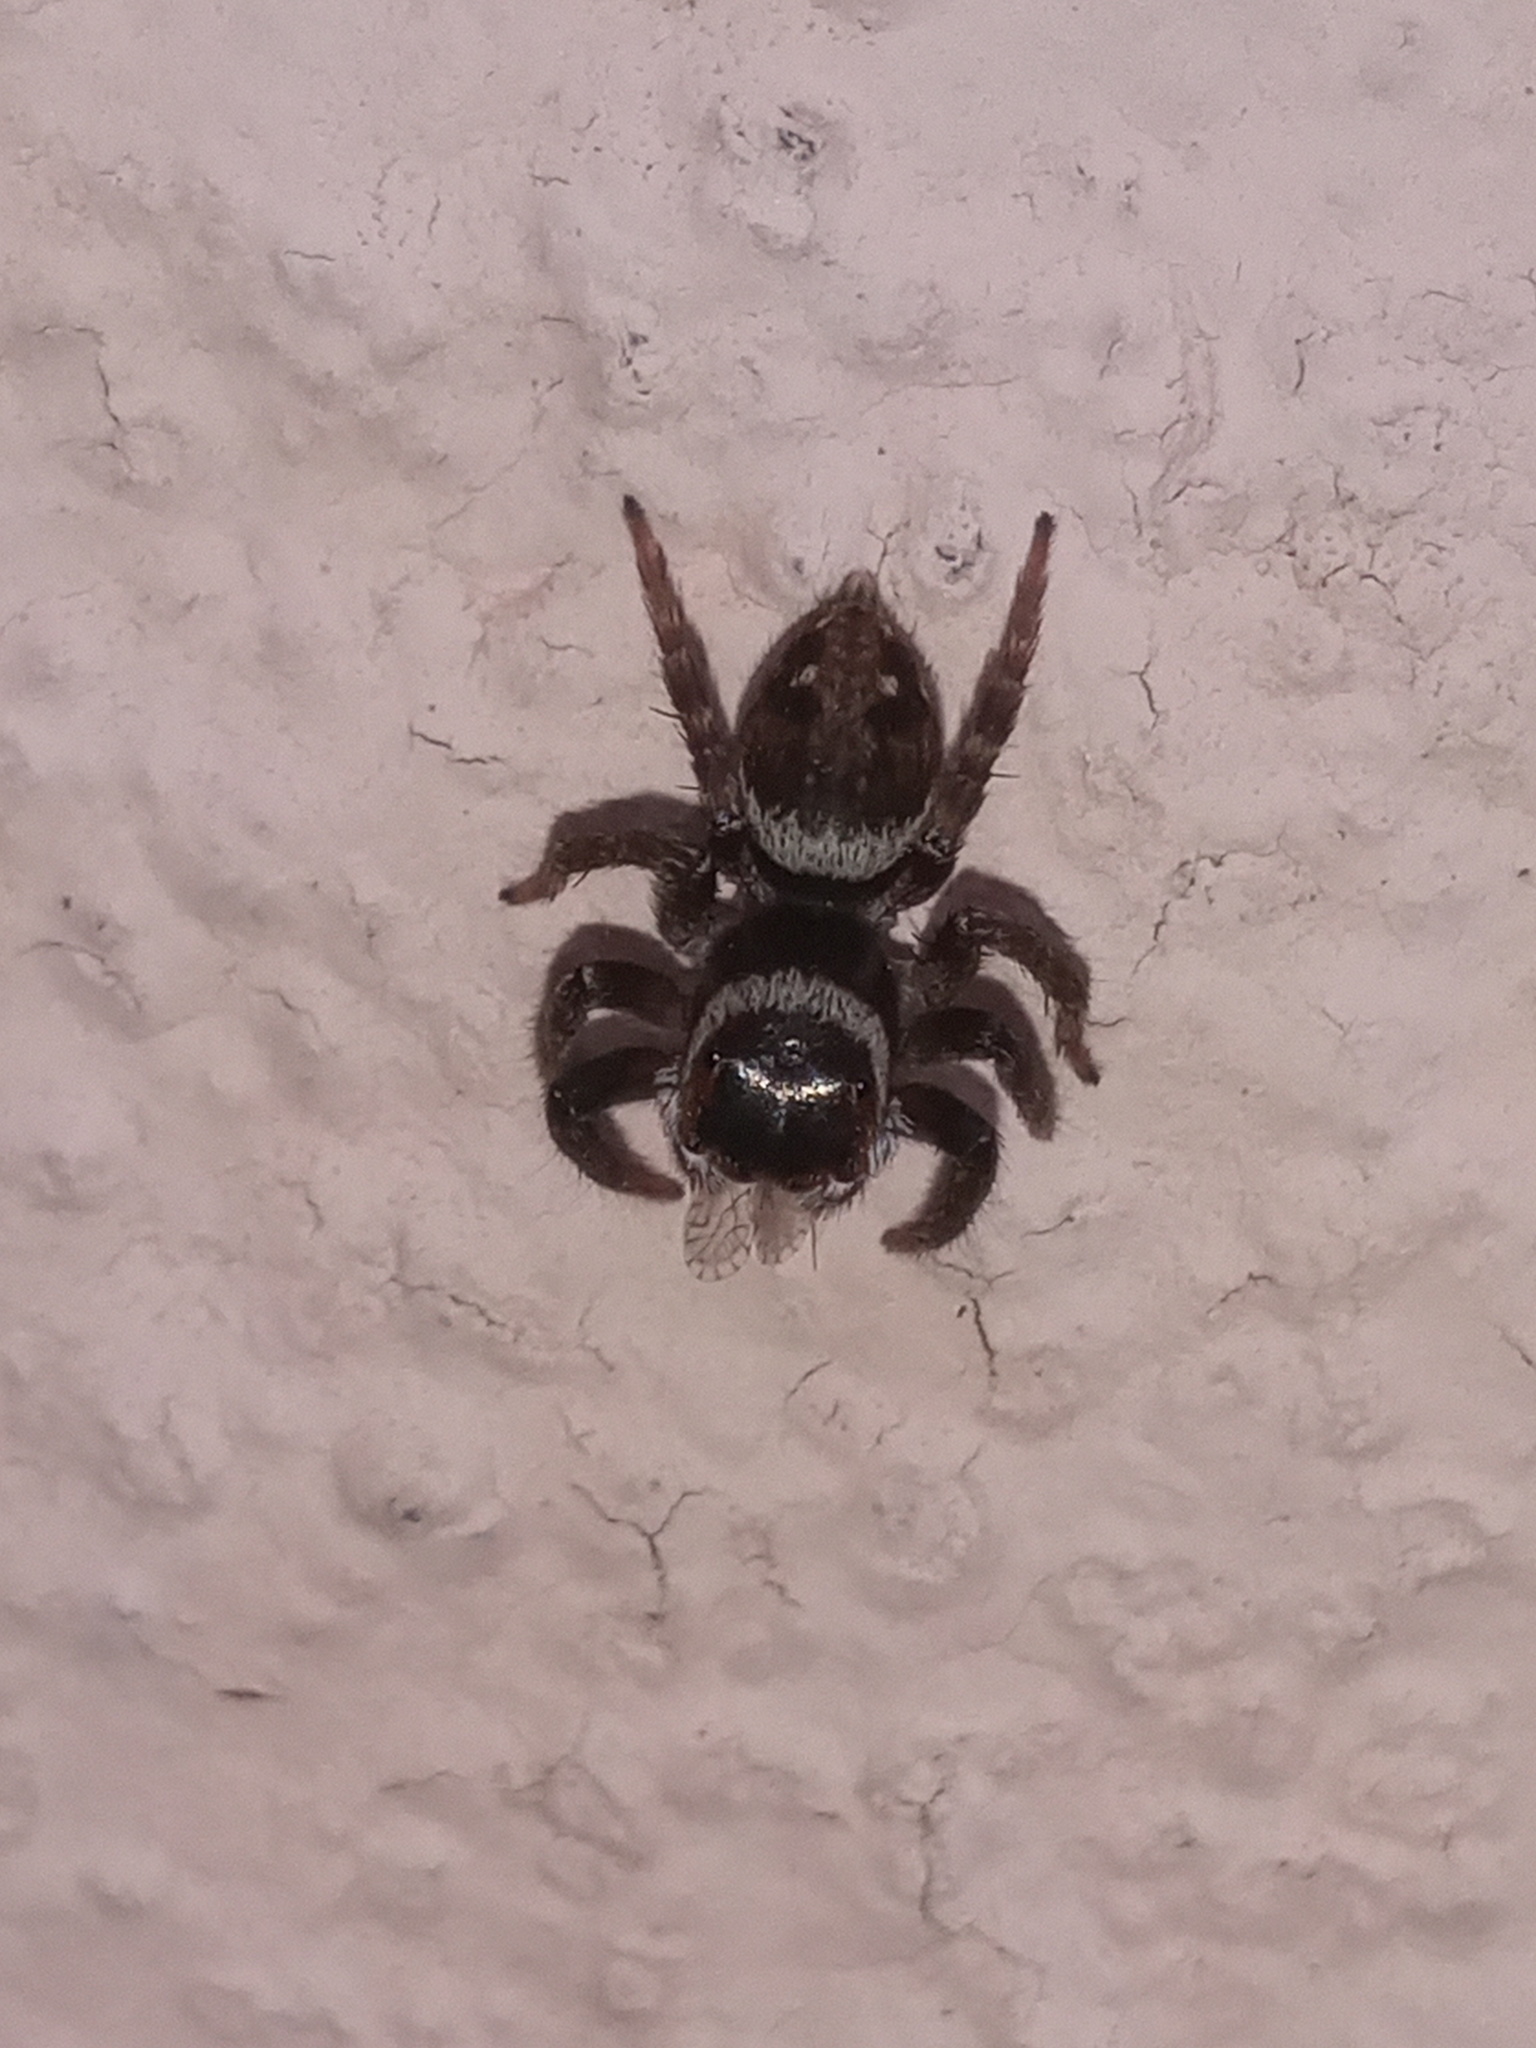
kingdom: Animalia
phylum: Arthropoda
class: Arachnida
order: Araneae
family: Salticidae
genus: Hasarius
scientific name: Hasarius adansoni
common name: Jumping spider
